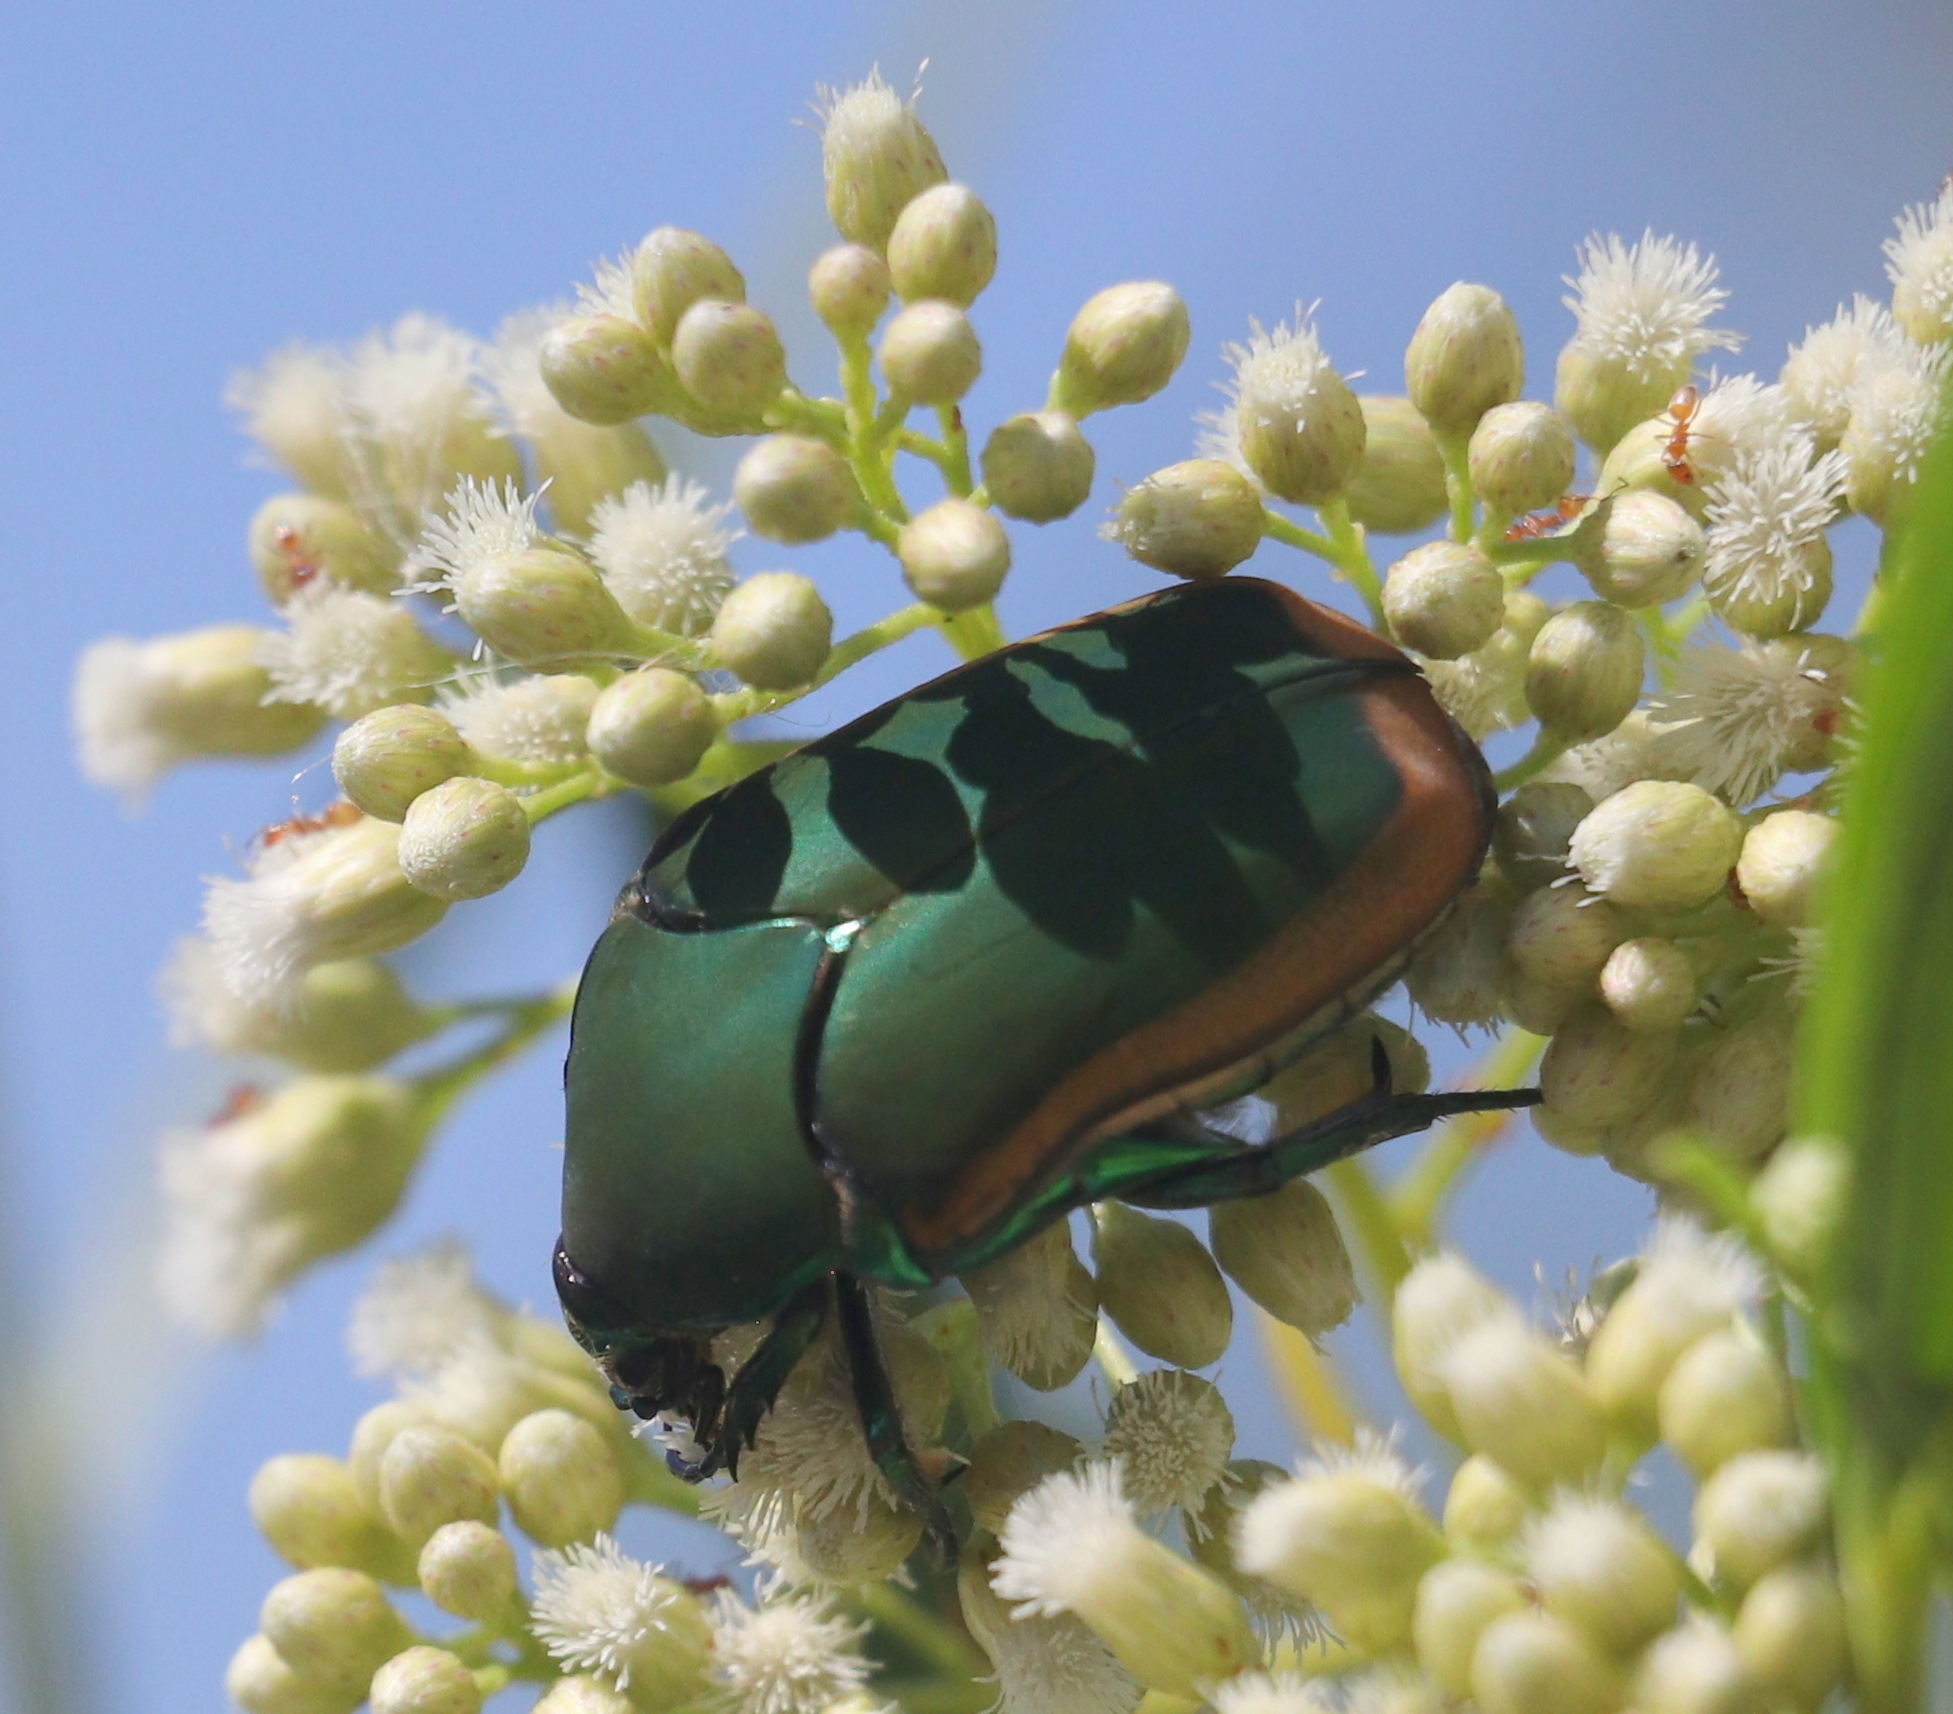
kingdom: Animalia
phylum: Arthropoda
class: Insecta
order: Coleoptera
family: Scarabaeidae
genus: Cotinis
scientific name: Cotinis mutabilis
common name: Figeater beetle
